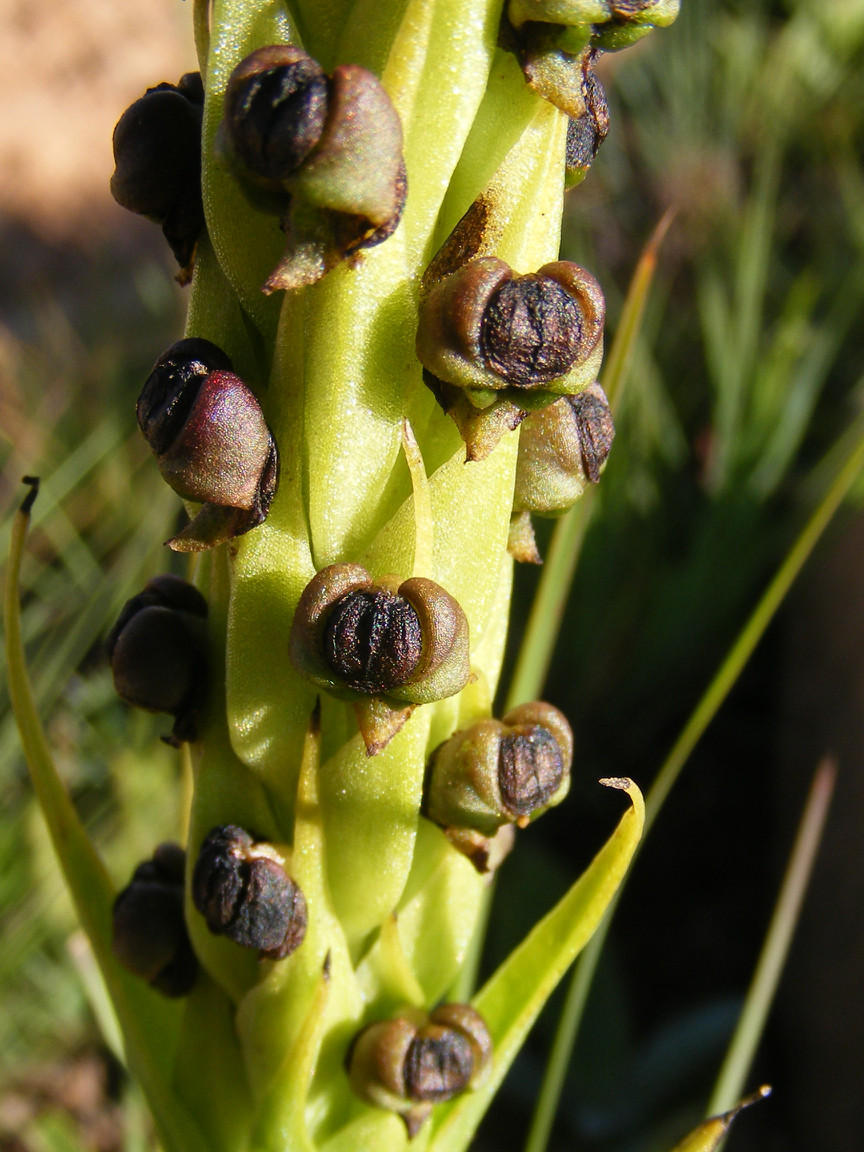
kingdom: Plantae
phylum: Tracheophyta
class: Liliopsida
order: Asparagales
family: Orchidaceae
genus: Corycium
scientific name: Corycium dracomontanum
